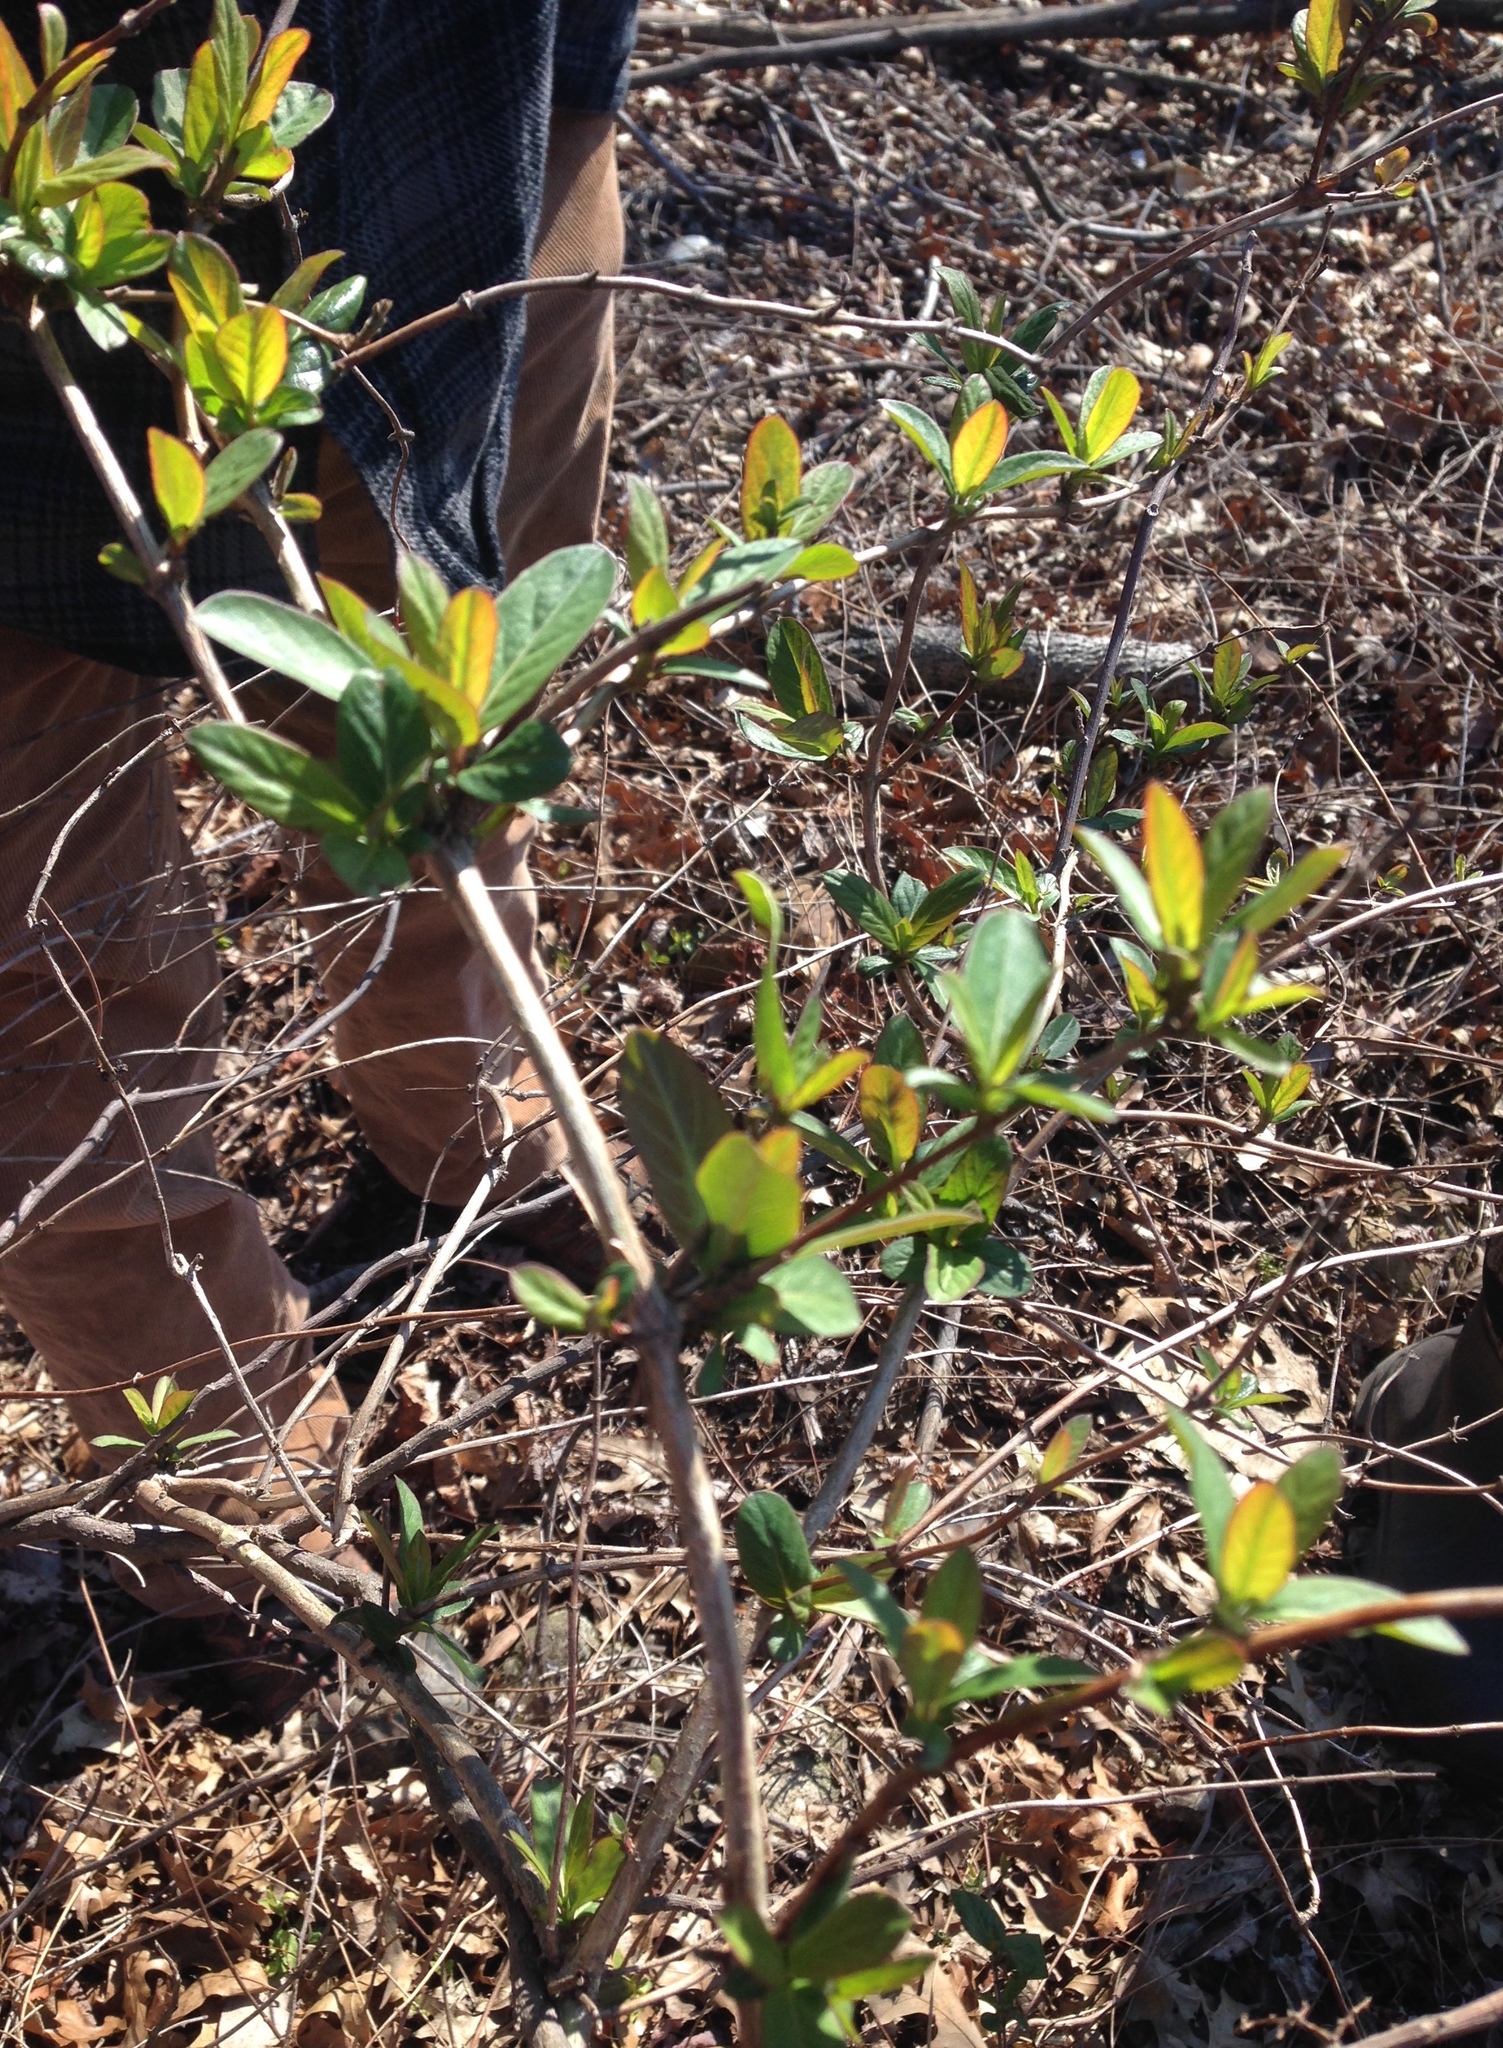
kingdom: Plantae
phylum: Tracheophyta
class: Magnoliopsida
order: Dipsacales
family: Caprifoliaceae
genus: Lonicera
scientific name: Lonicera japonica
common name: Japanese honeysuckle
